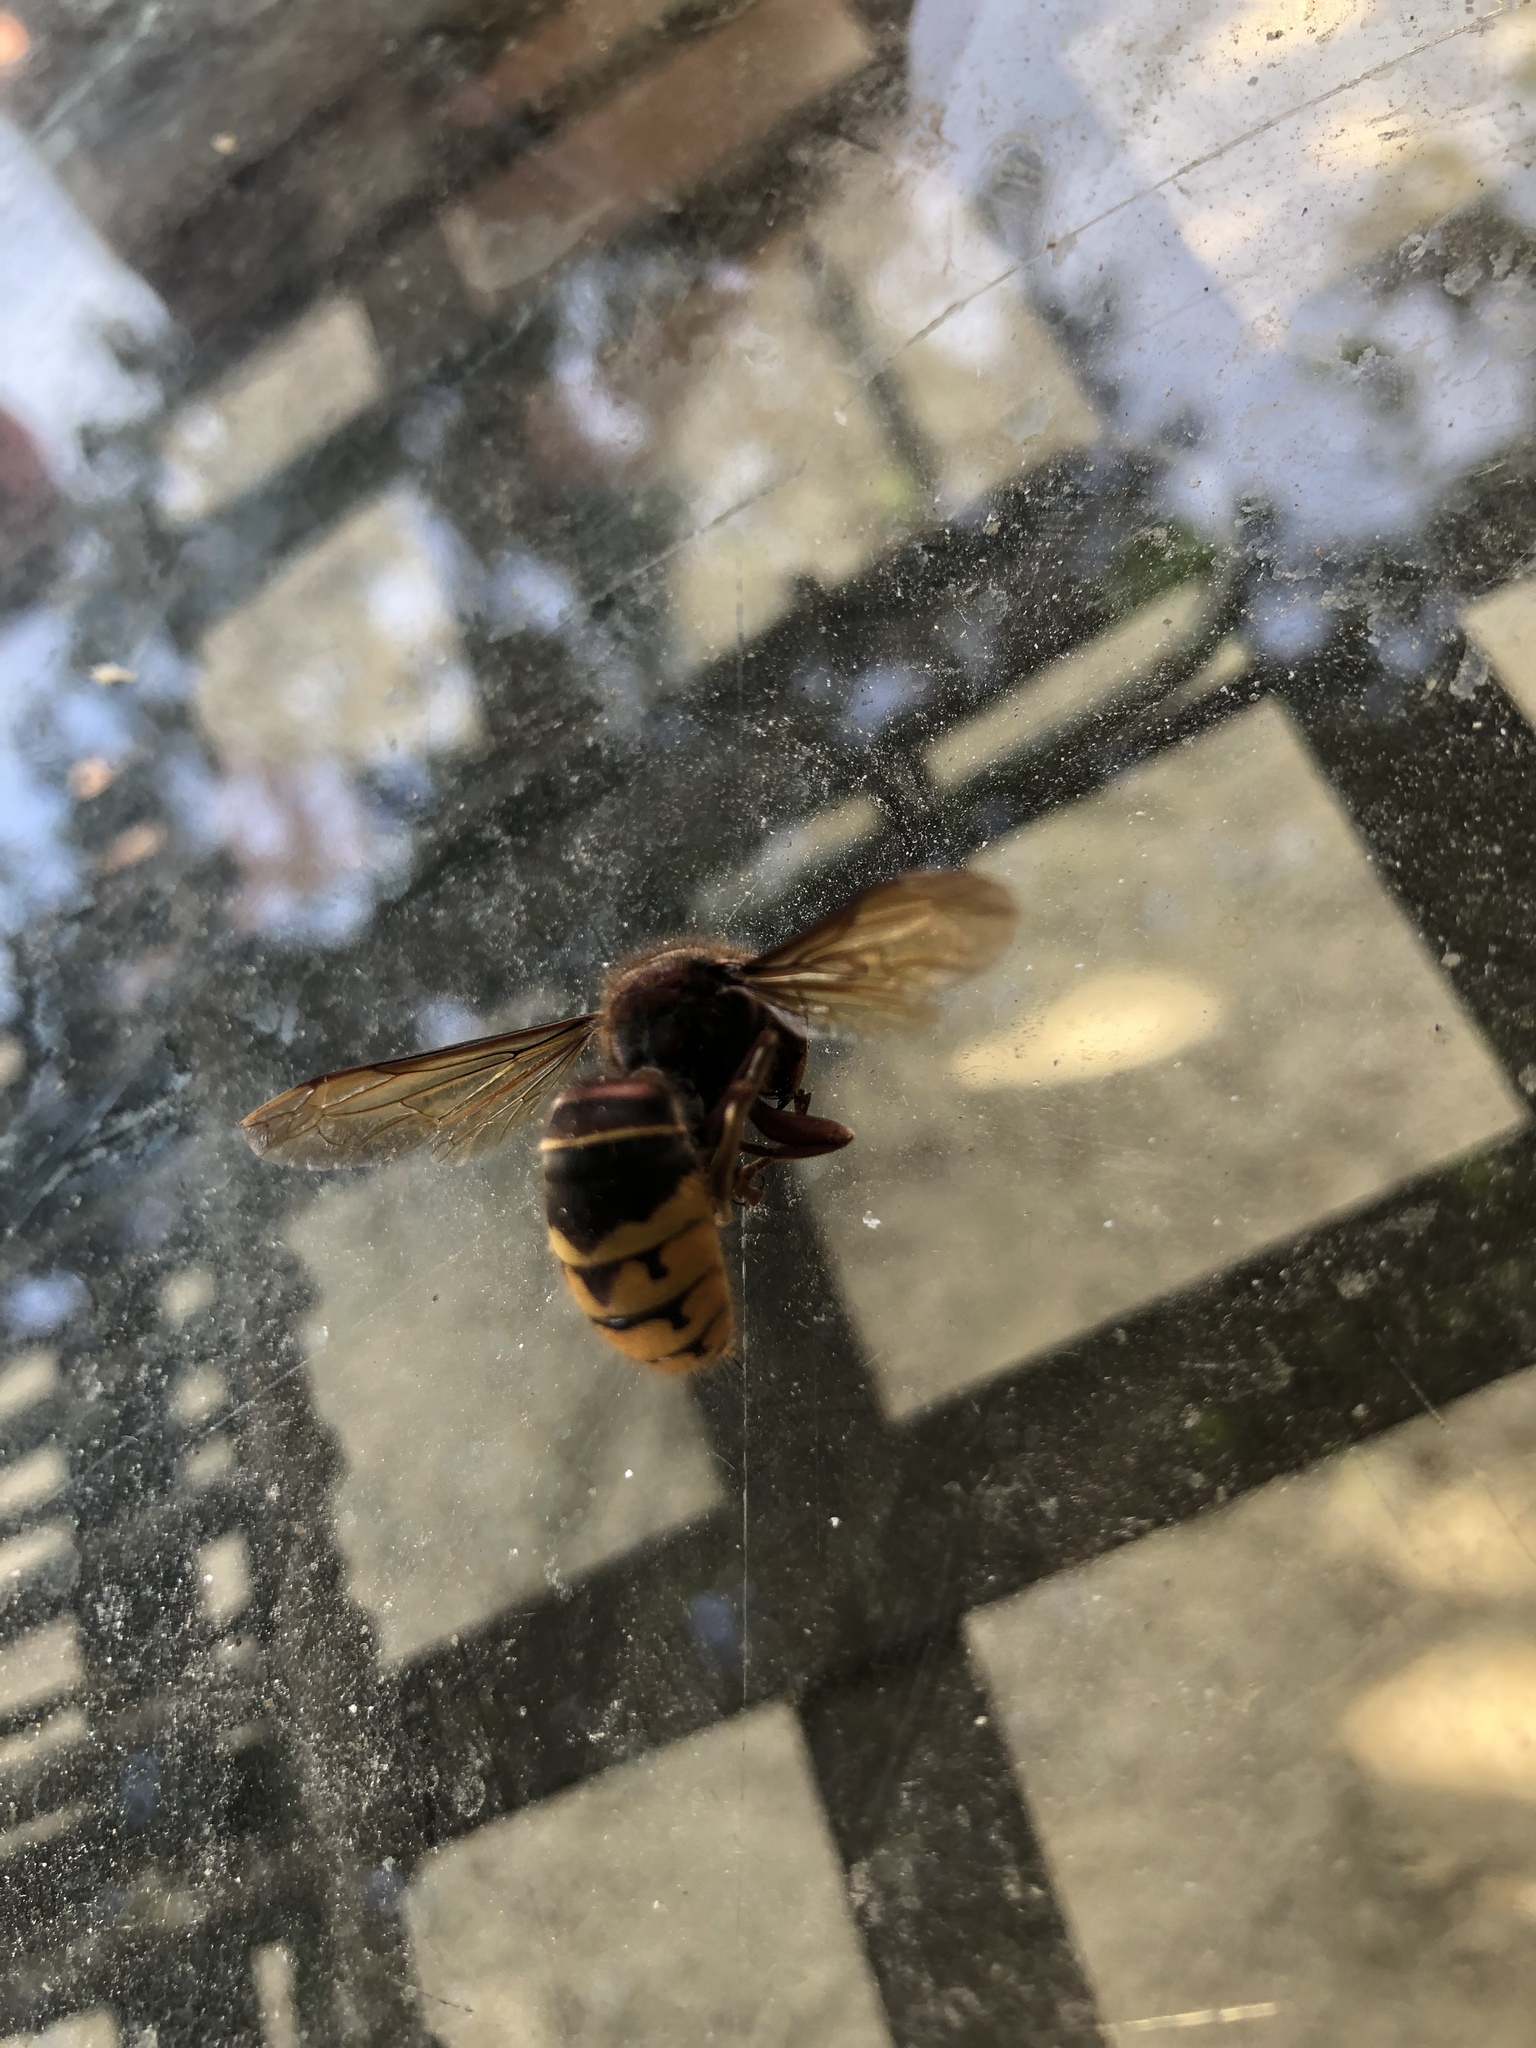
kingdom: Animalia
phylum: Arthropoda
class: Insecta
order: Hymenoptera
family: Vespidae
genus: Vespa
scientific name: Vespa crabro
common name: Hornet
